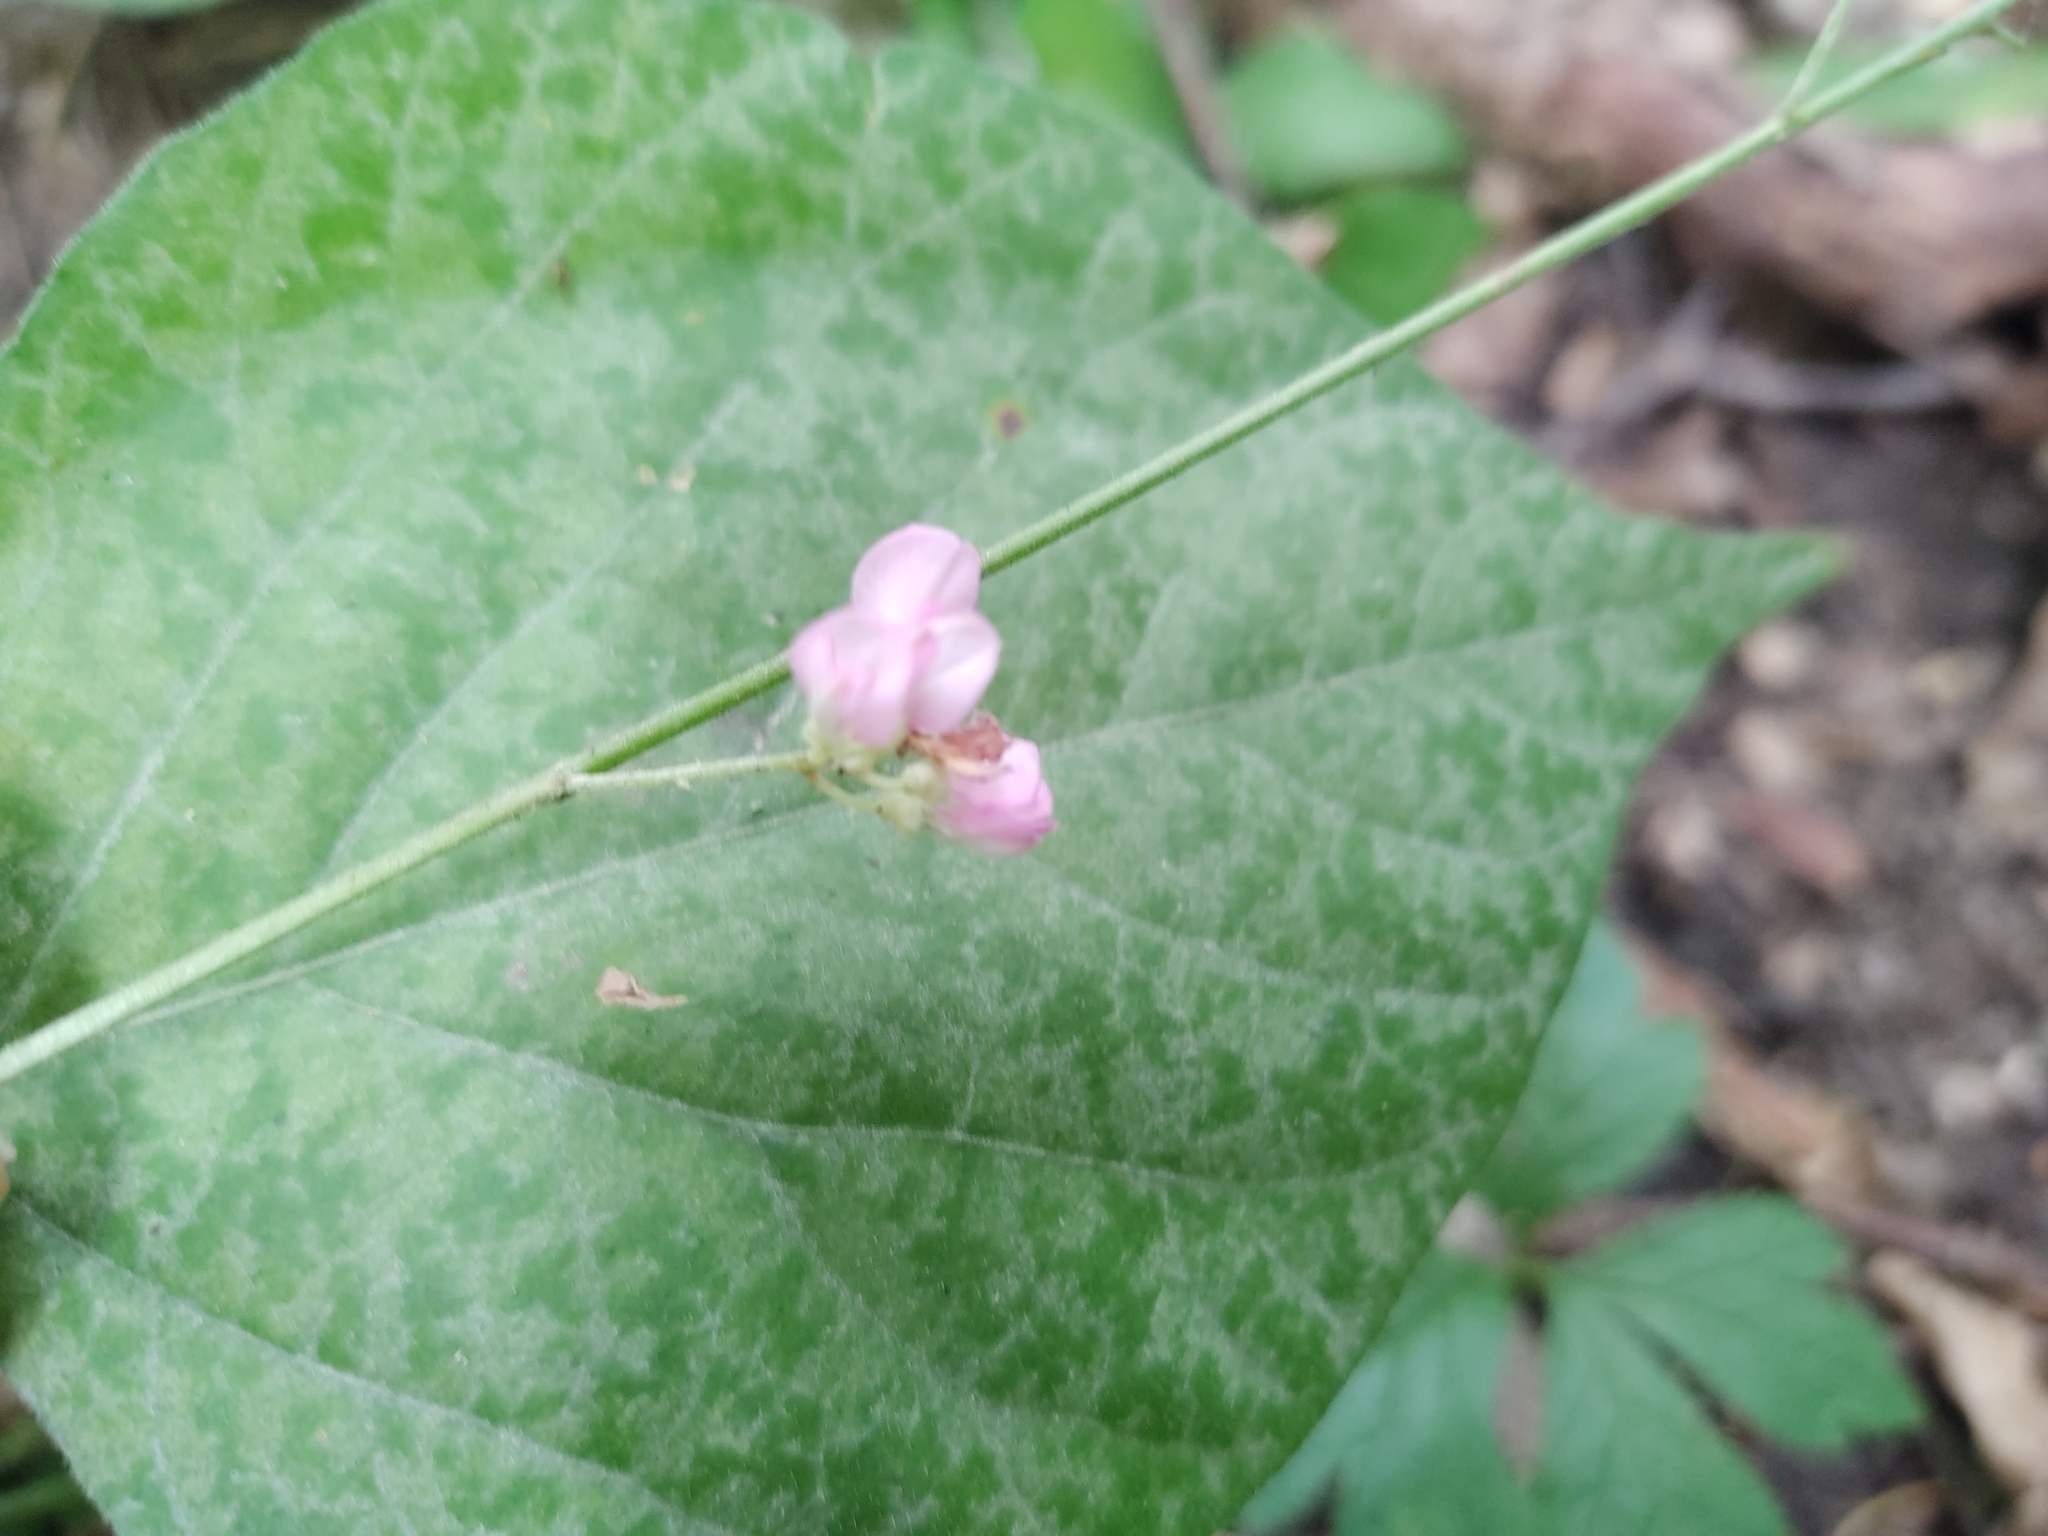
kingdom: Plantae
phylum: Tracheophyta
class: Magnoliopsida
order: Fabales
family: Fabaceae
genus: Hylodesmum
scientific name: Hylodesmum glutinosum
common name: Clustered-leaved tick-trefoil
